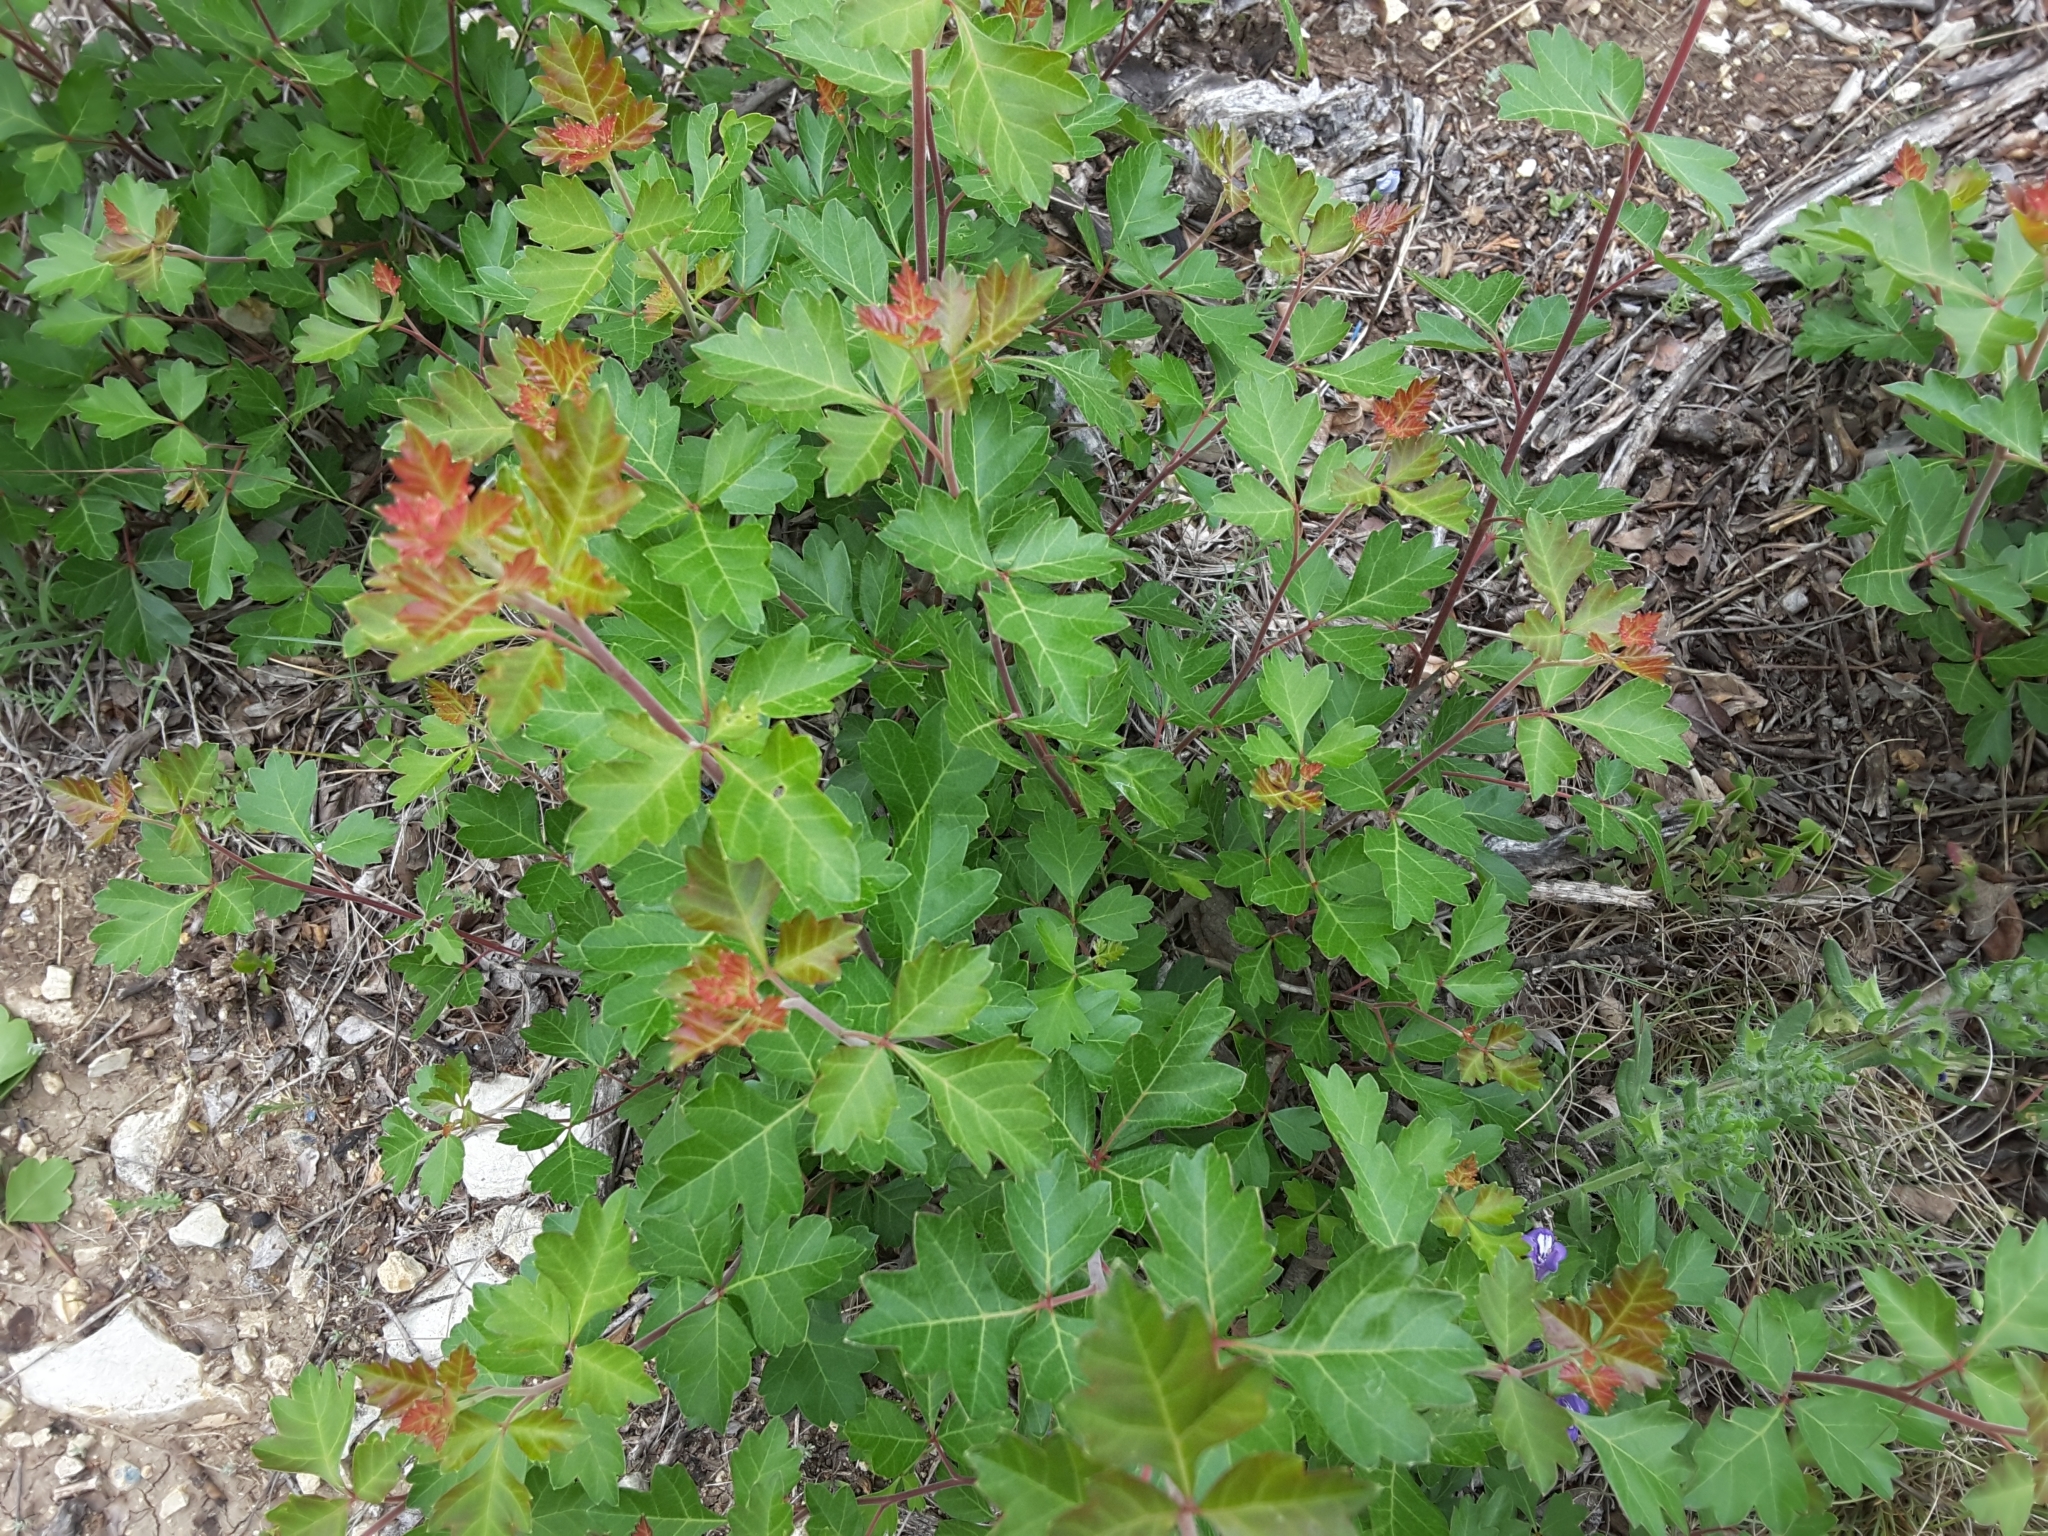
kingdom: Plantae
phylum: Tracheophyta
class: Magnoliopsida
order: Sapindales
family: Anacardiaceae
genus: Rhus
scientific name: Rhus aromatica
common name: Aromatic sumac
